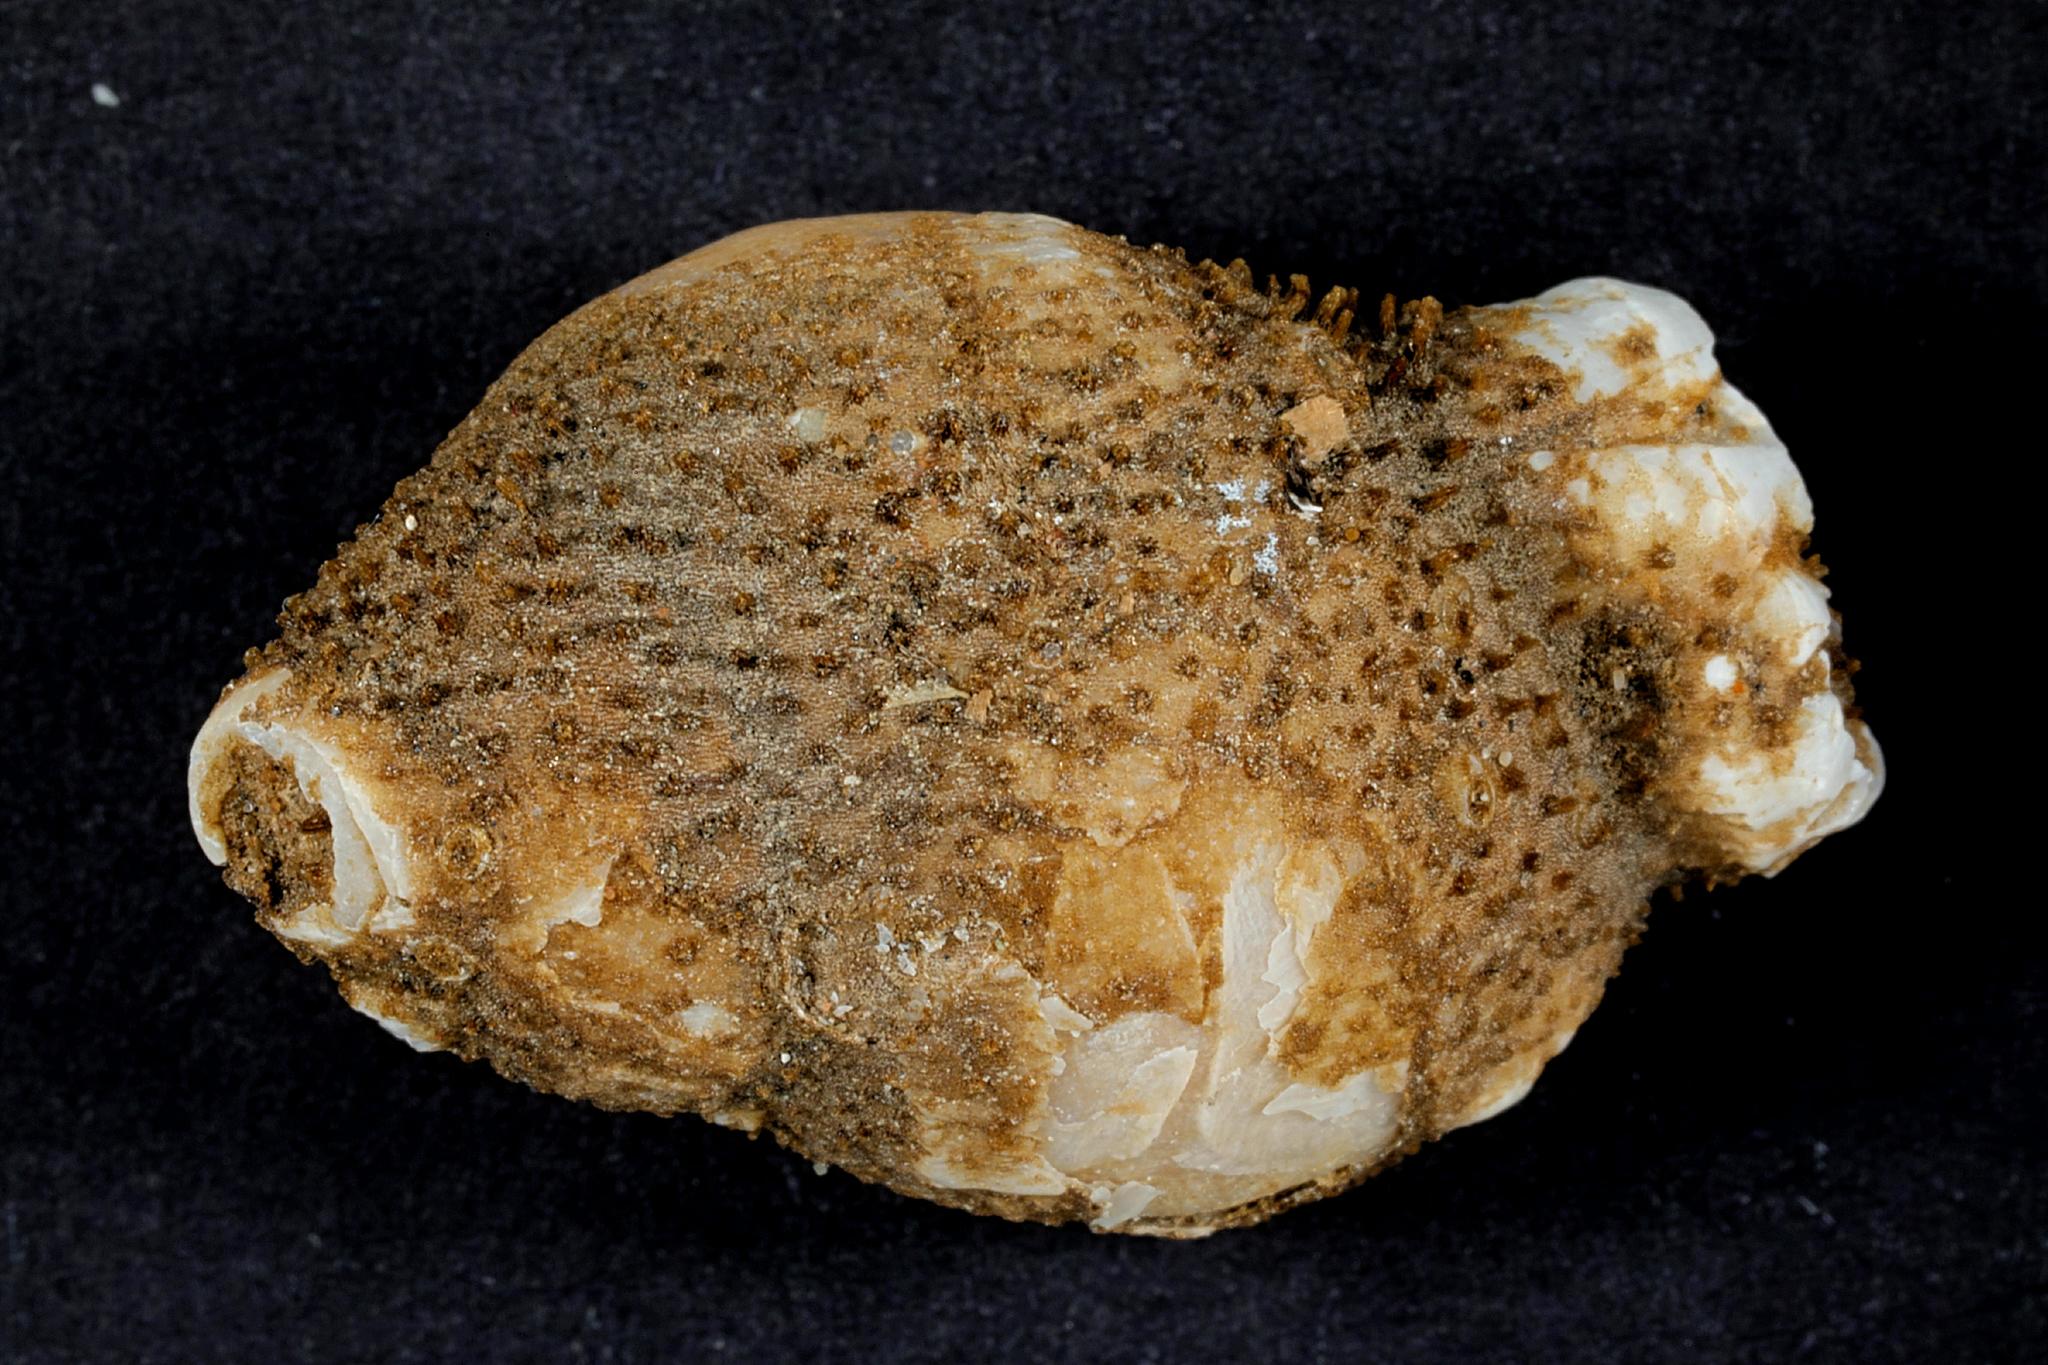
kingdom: Animalia
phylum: Cnidaria
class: Hydrozoa
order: Anthoathecata
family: Hydractiniidae
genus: Hydractinia
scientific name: Hydractinia echinata
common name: Rough hydroid
